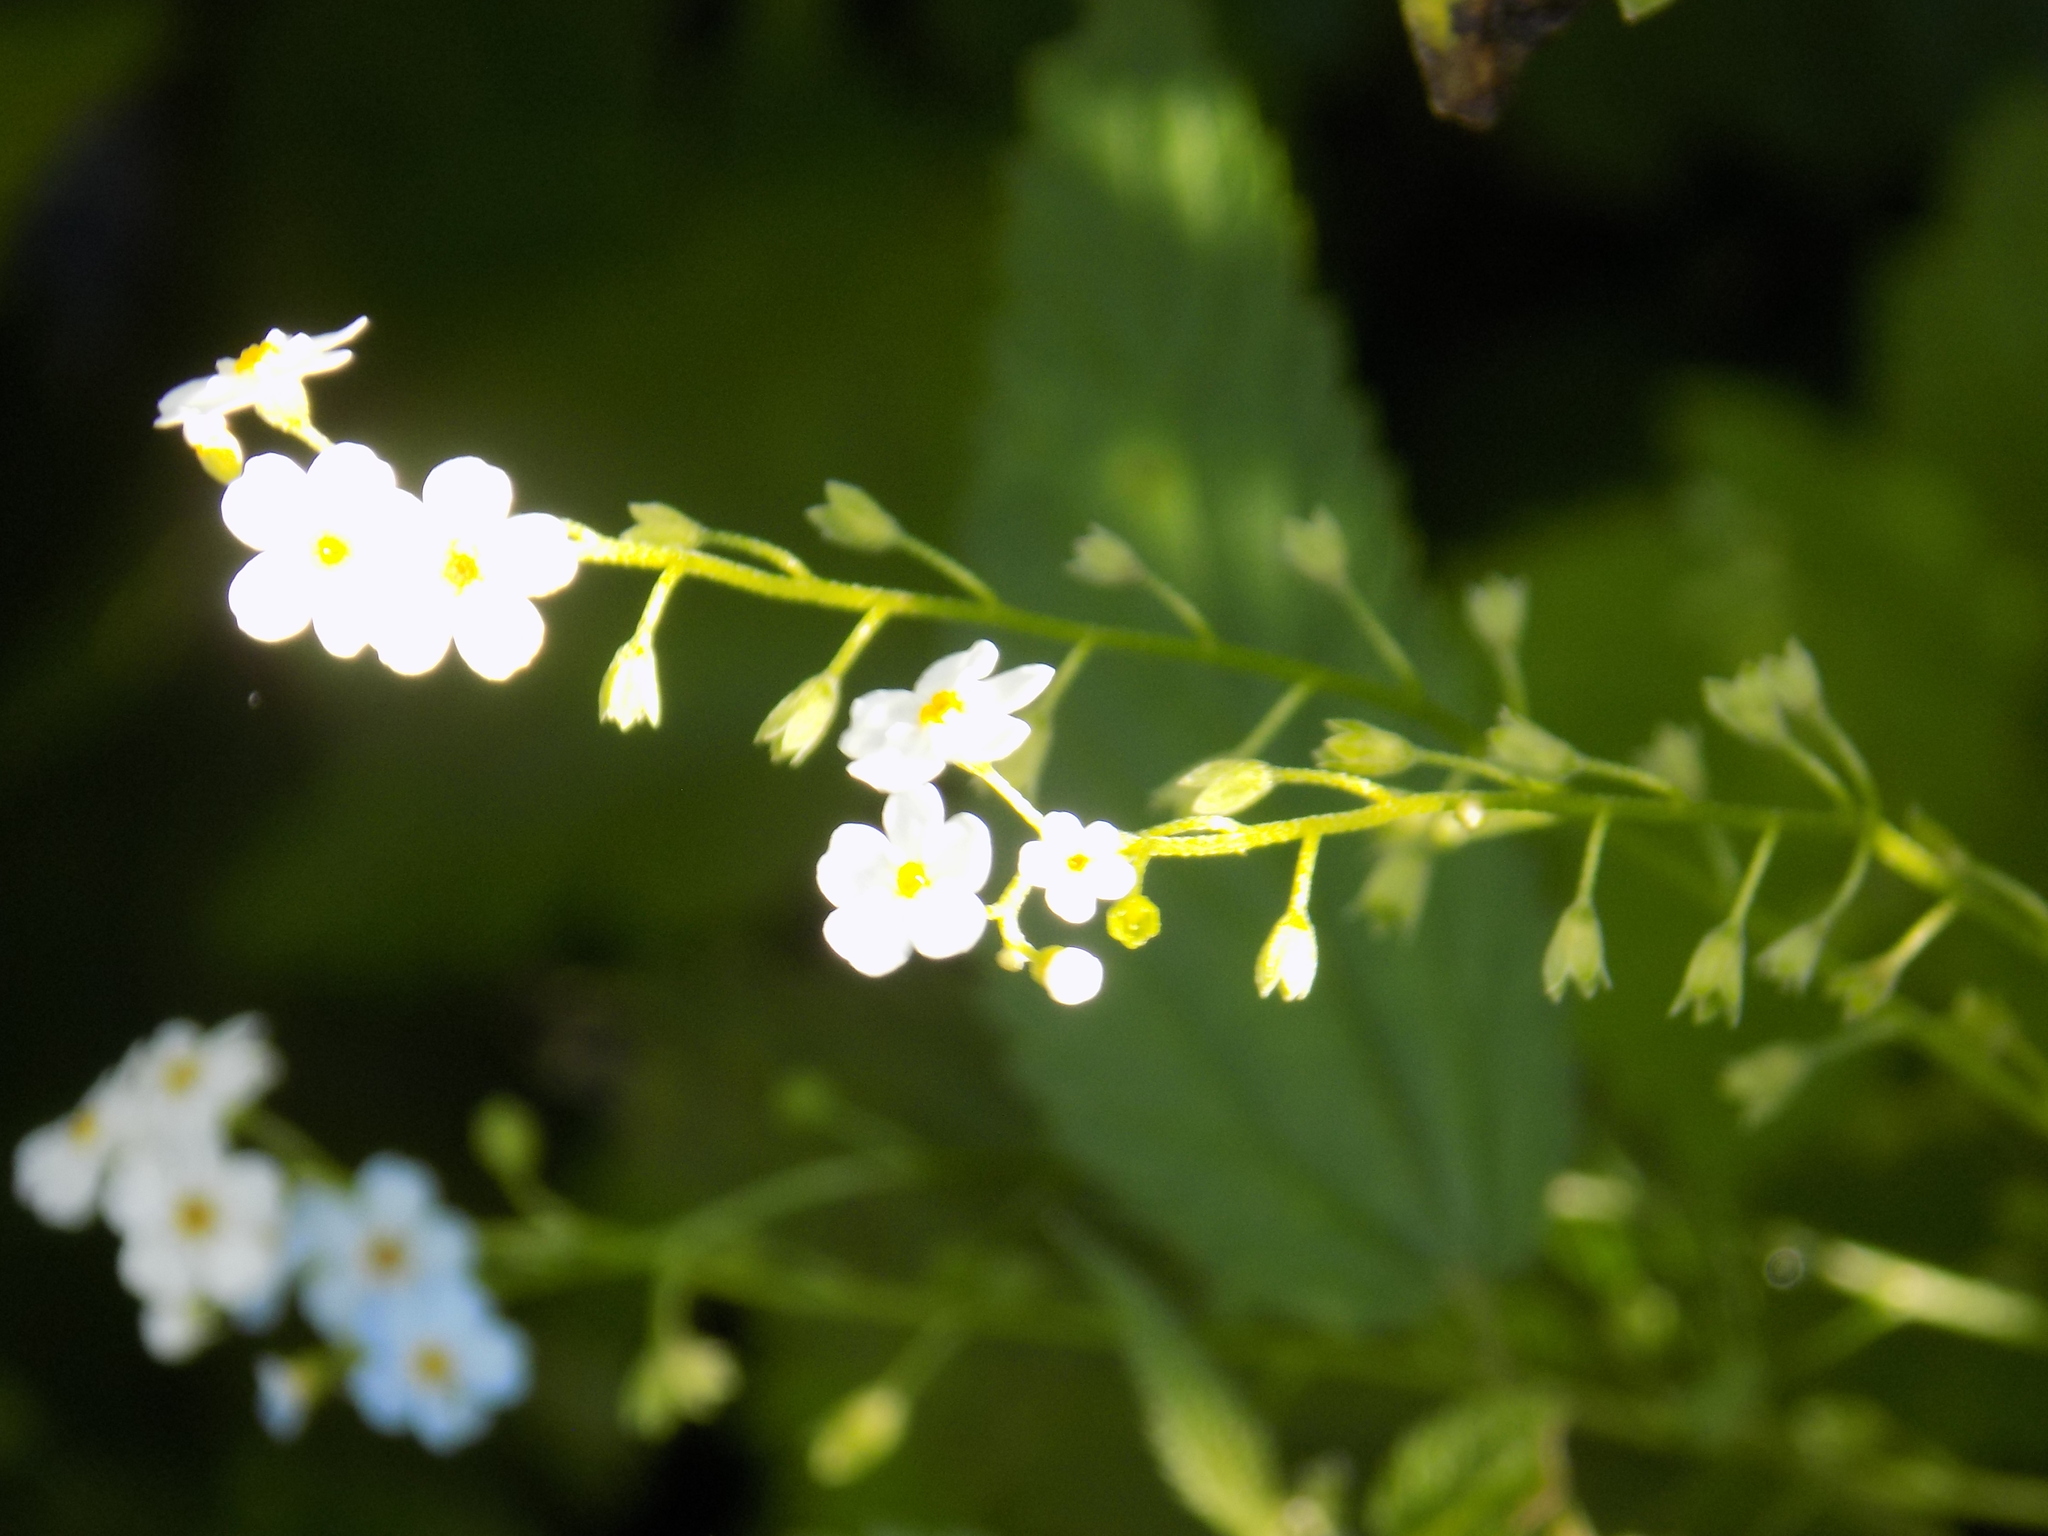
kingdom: Plantae
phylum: Tracheophyta
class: Magnoliopsida
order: Boraginales
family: Boraginaceae
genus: Myosotis
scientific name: Myosotis scorpioides
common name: Water forget-me-not
